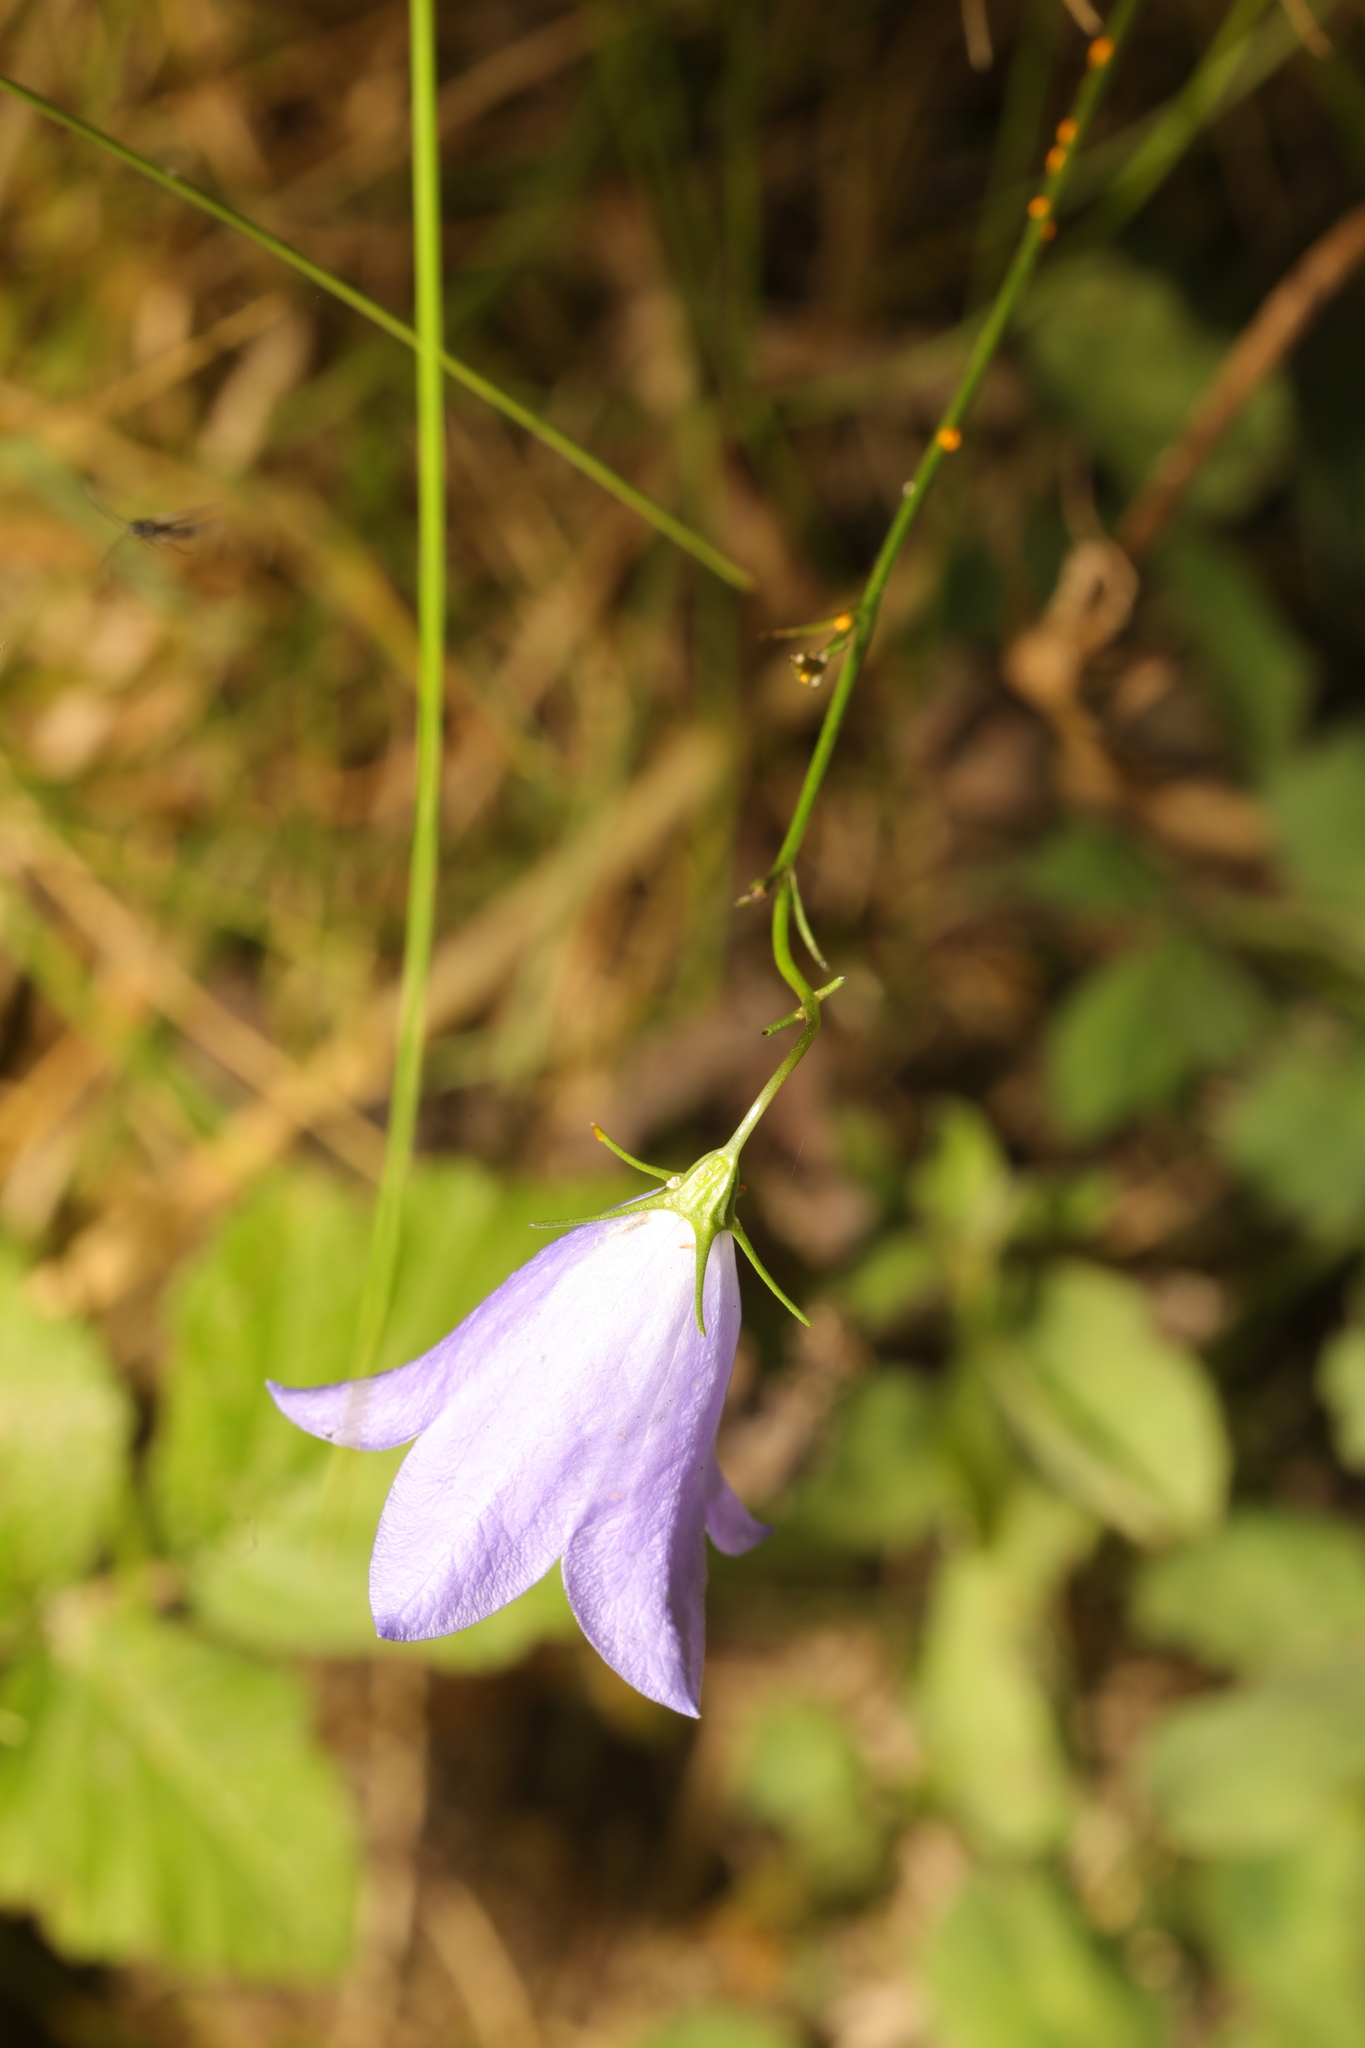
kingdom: Plantae
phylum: Tracheophyta
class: Magnoliopsida
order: Asterales
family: Campanulaceae
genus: Campanula
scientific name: Campanula rotundifolia
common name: Harebell
